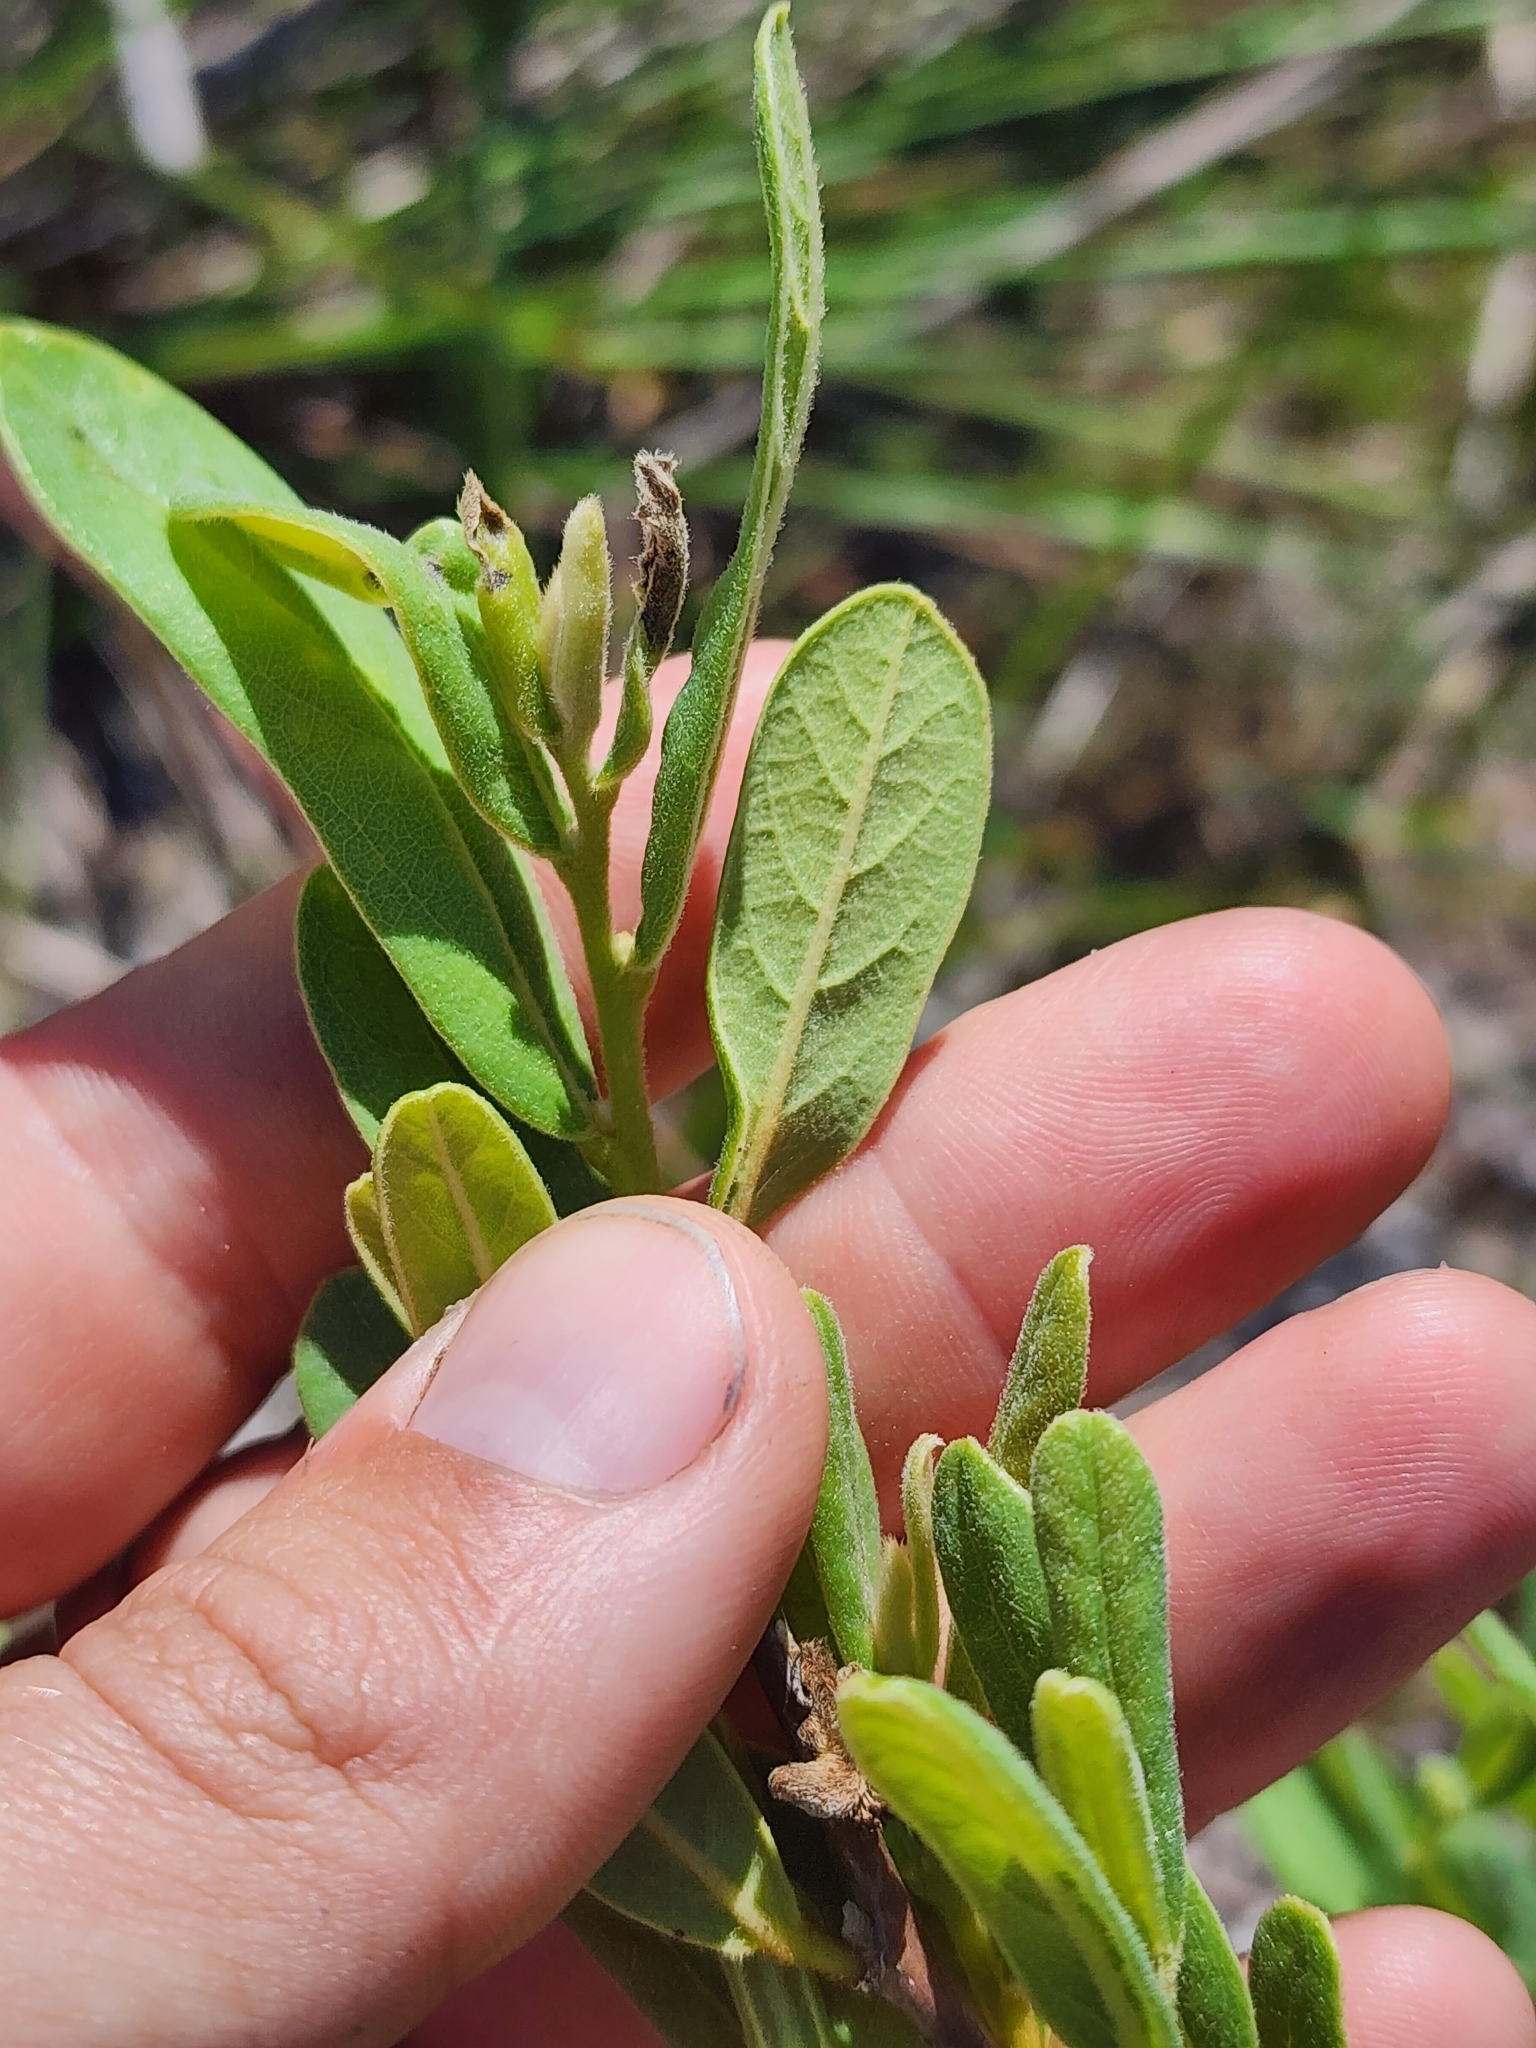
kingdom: Plantae
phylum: Tracheophyta
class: Magnoliopsida
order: Magnoliales
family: Annonaceae
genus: Asimina
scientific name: Asimina reticulata
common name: Flag pawpaw
